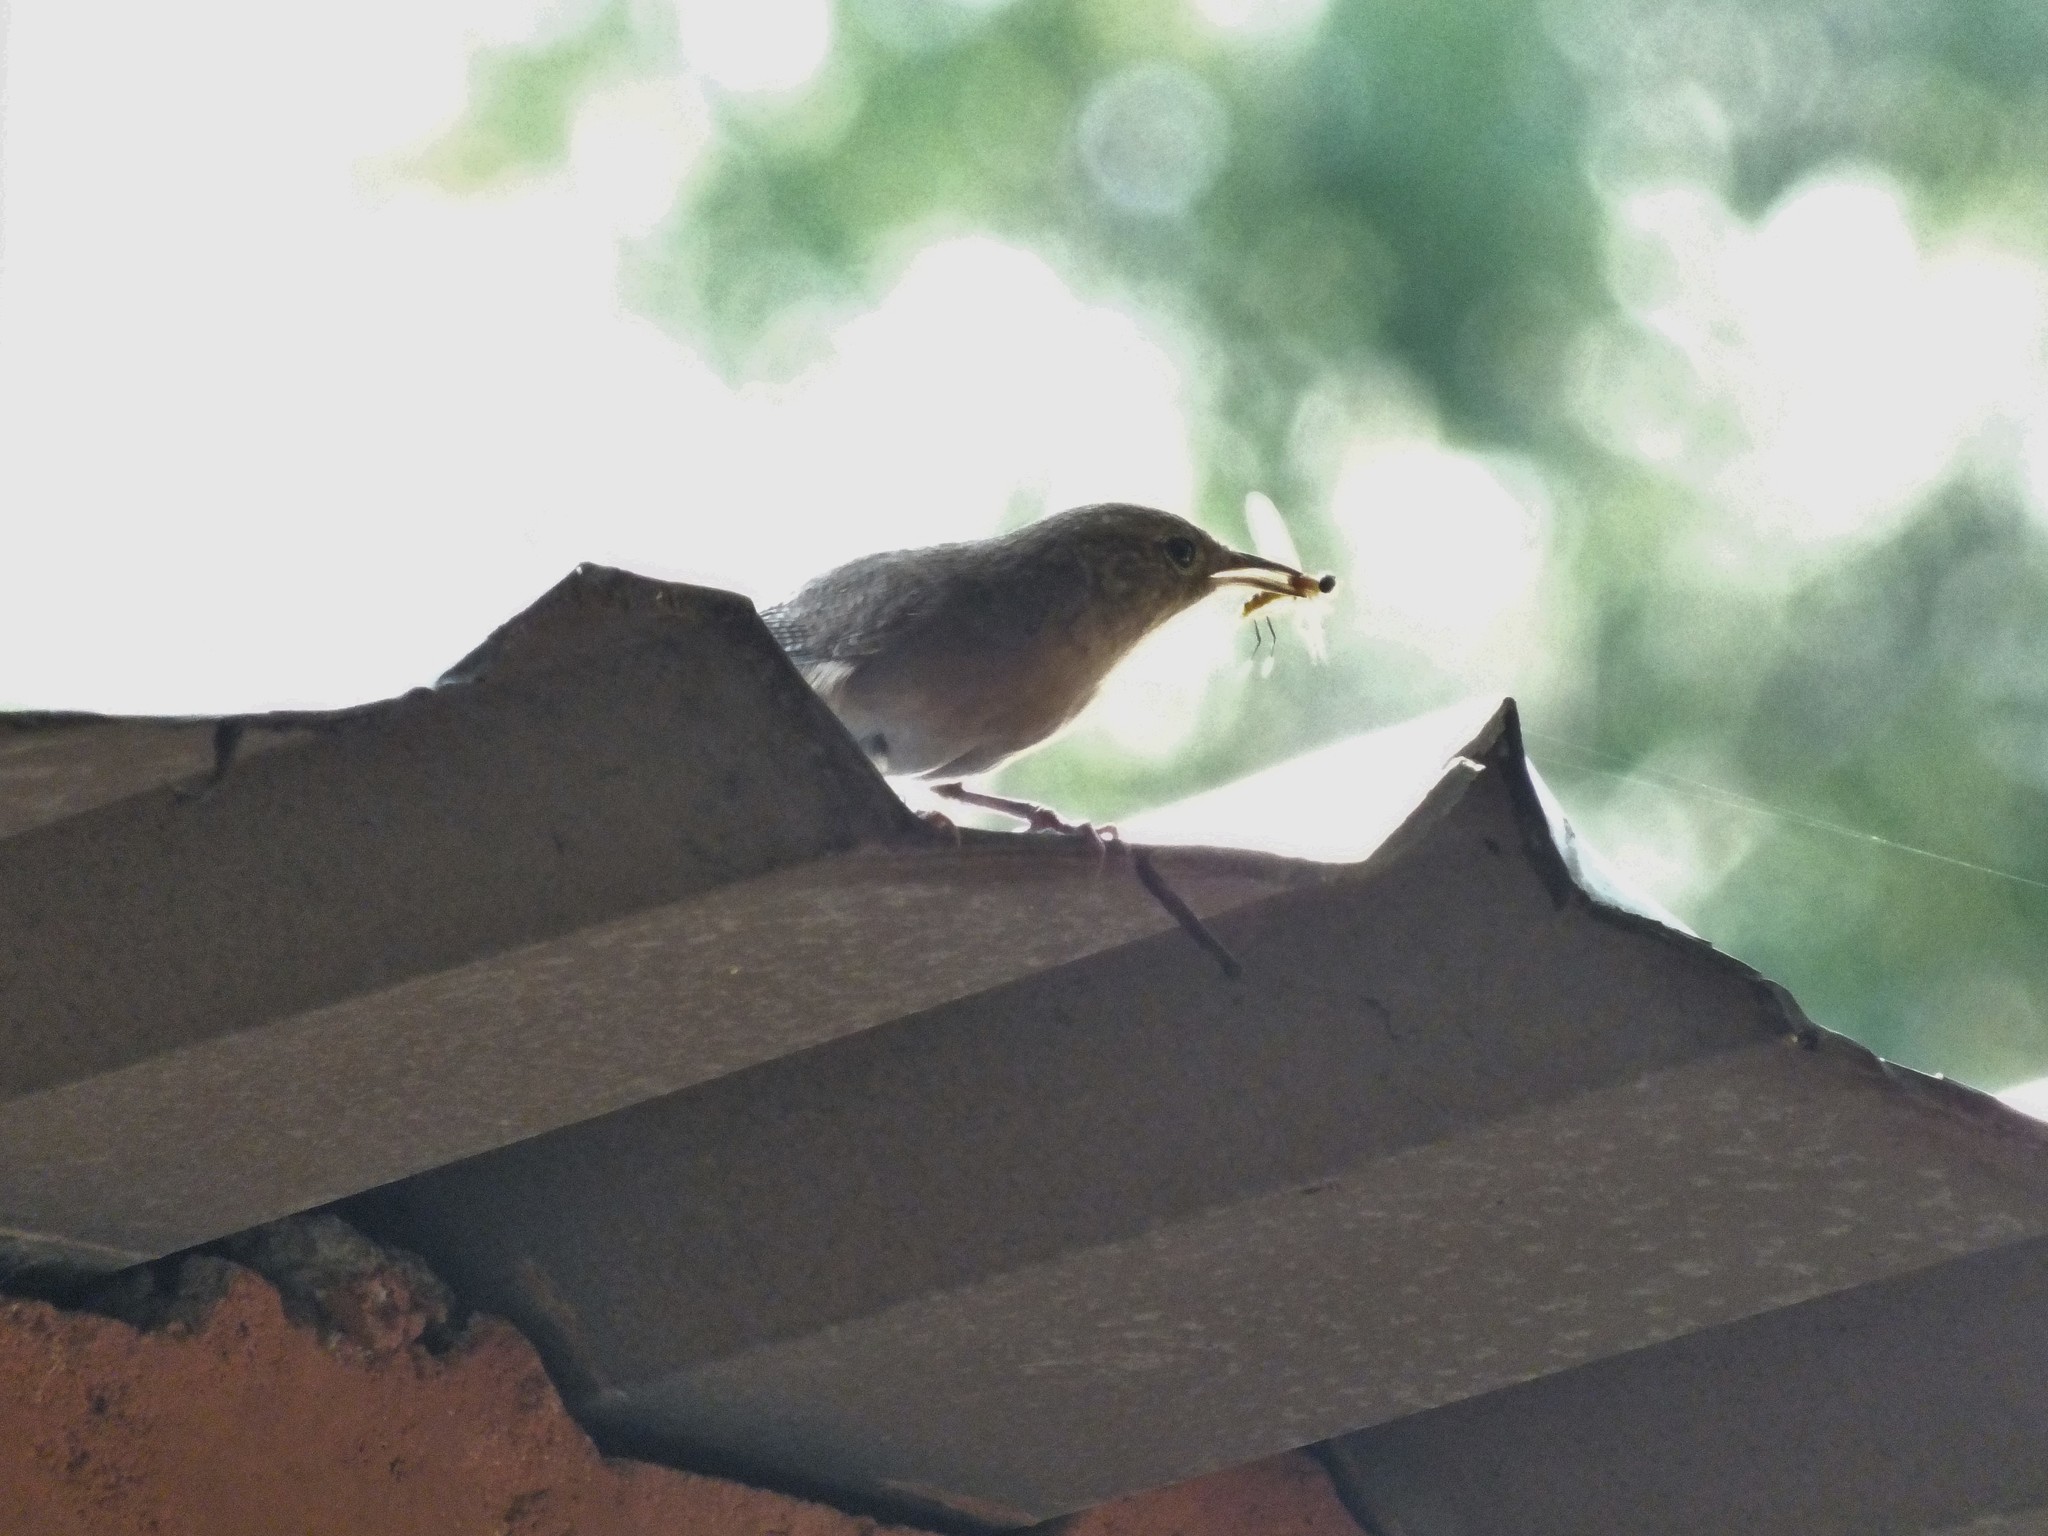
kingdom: Animalia
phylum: Chordata
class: Aves
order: Passeriformes
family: Troglodytidae
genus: Troglodytes
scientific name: Troglodytes aedon
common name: House wren
